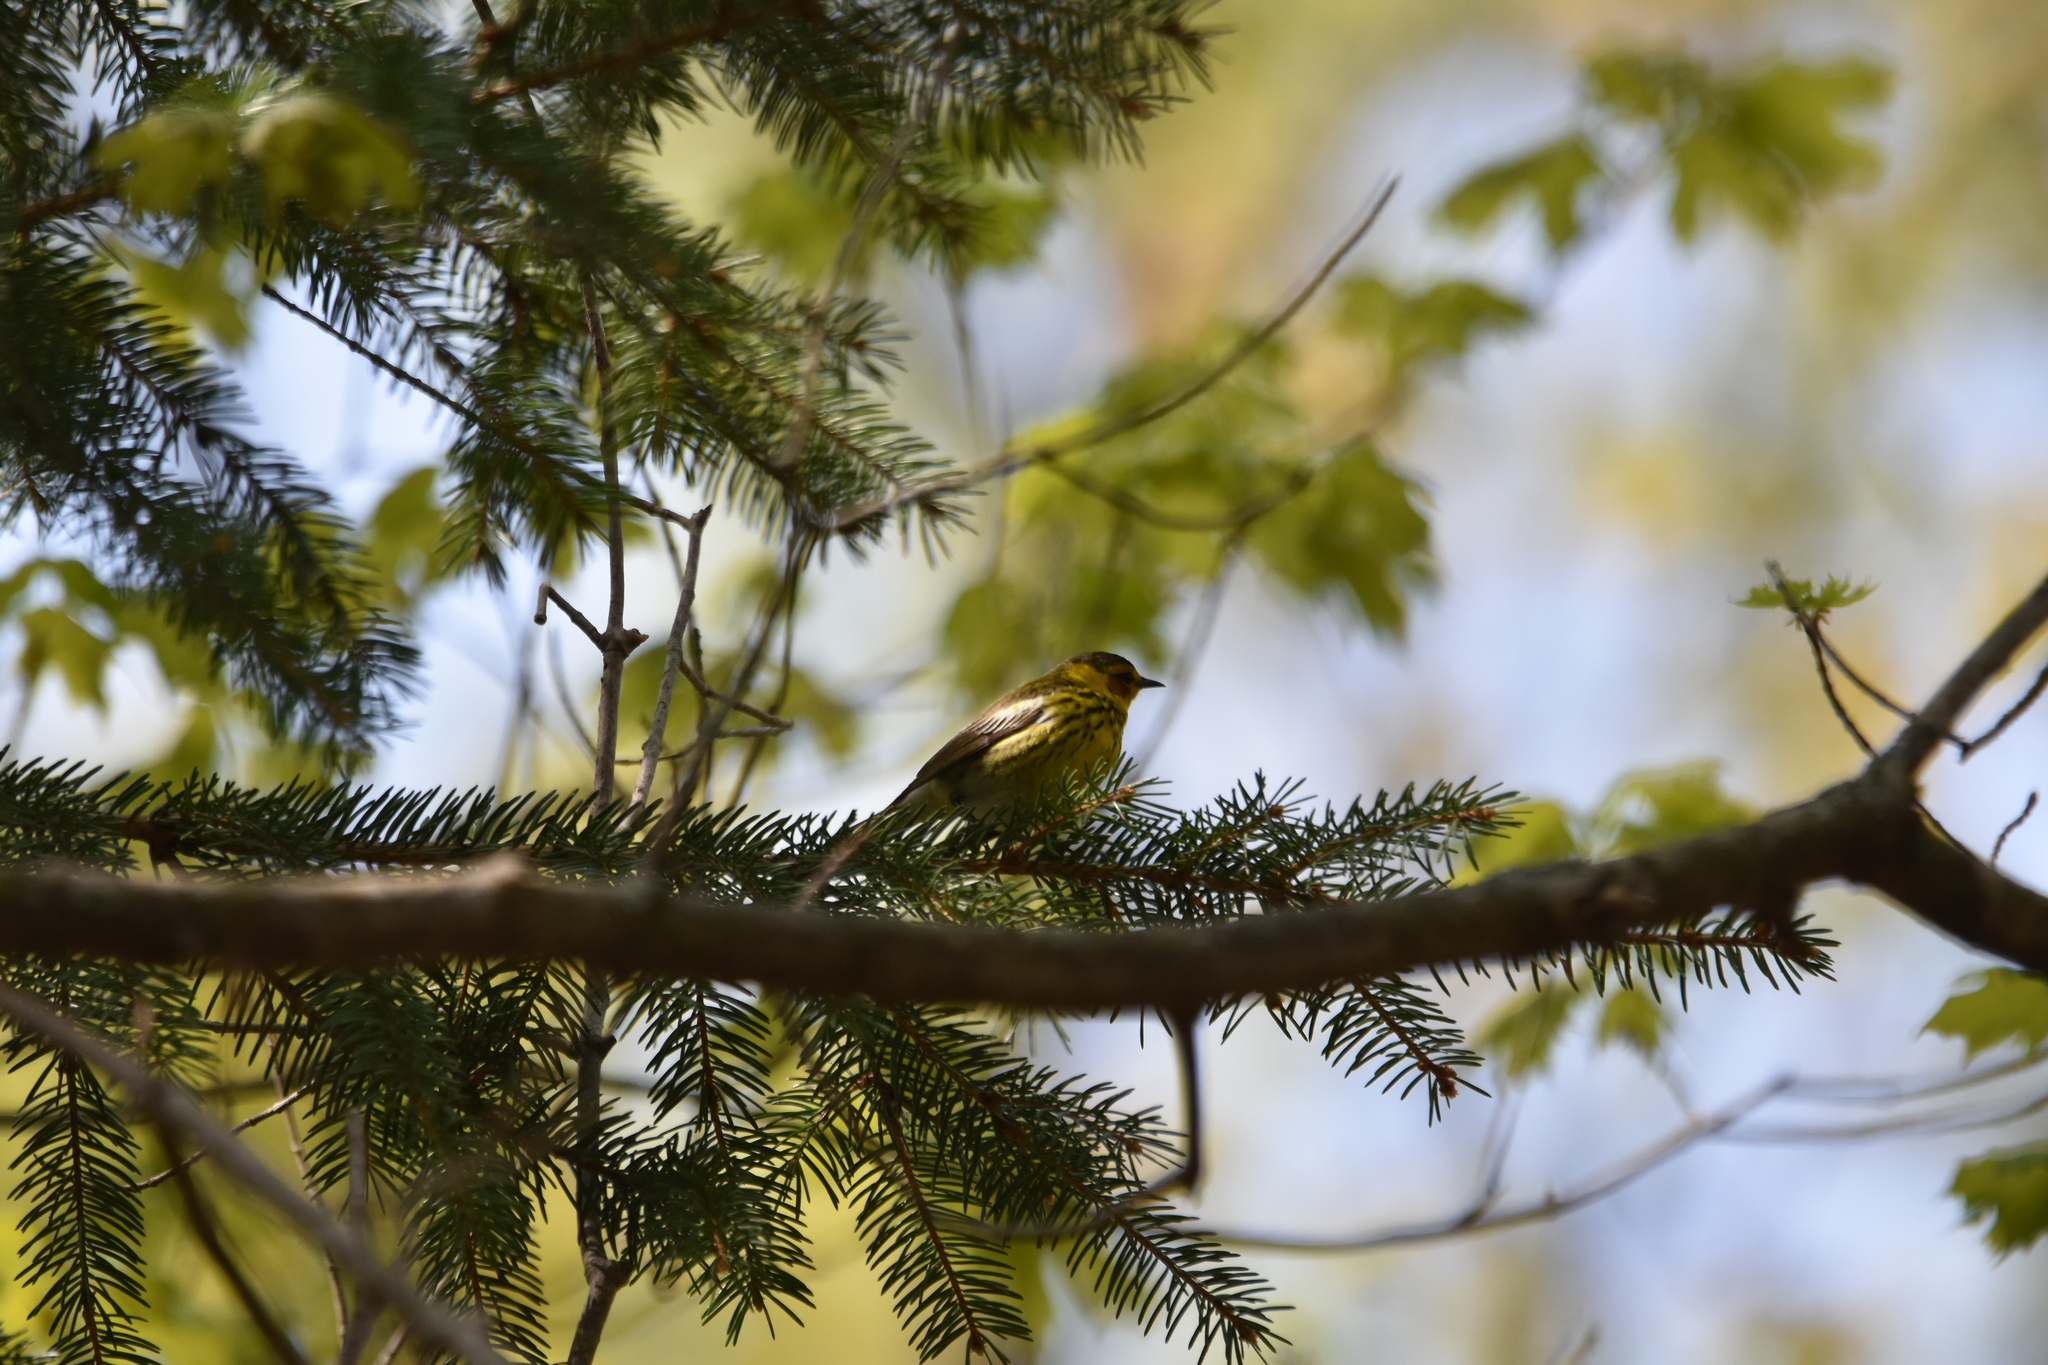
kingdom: Animalia
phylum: Chordata
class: Aves
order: Passeriformes
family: Parulidae
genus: Setophaga
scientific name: Setophaga tigrina
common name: Cape may warbler
